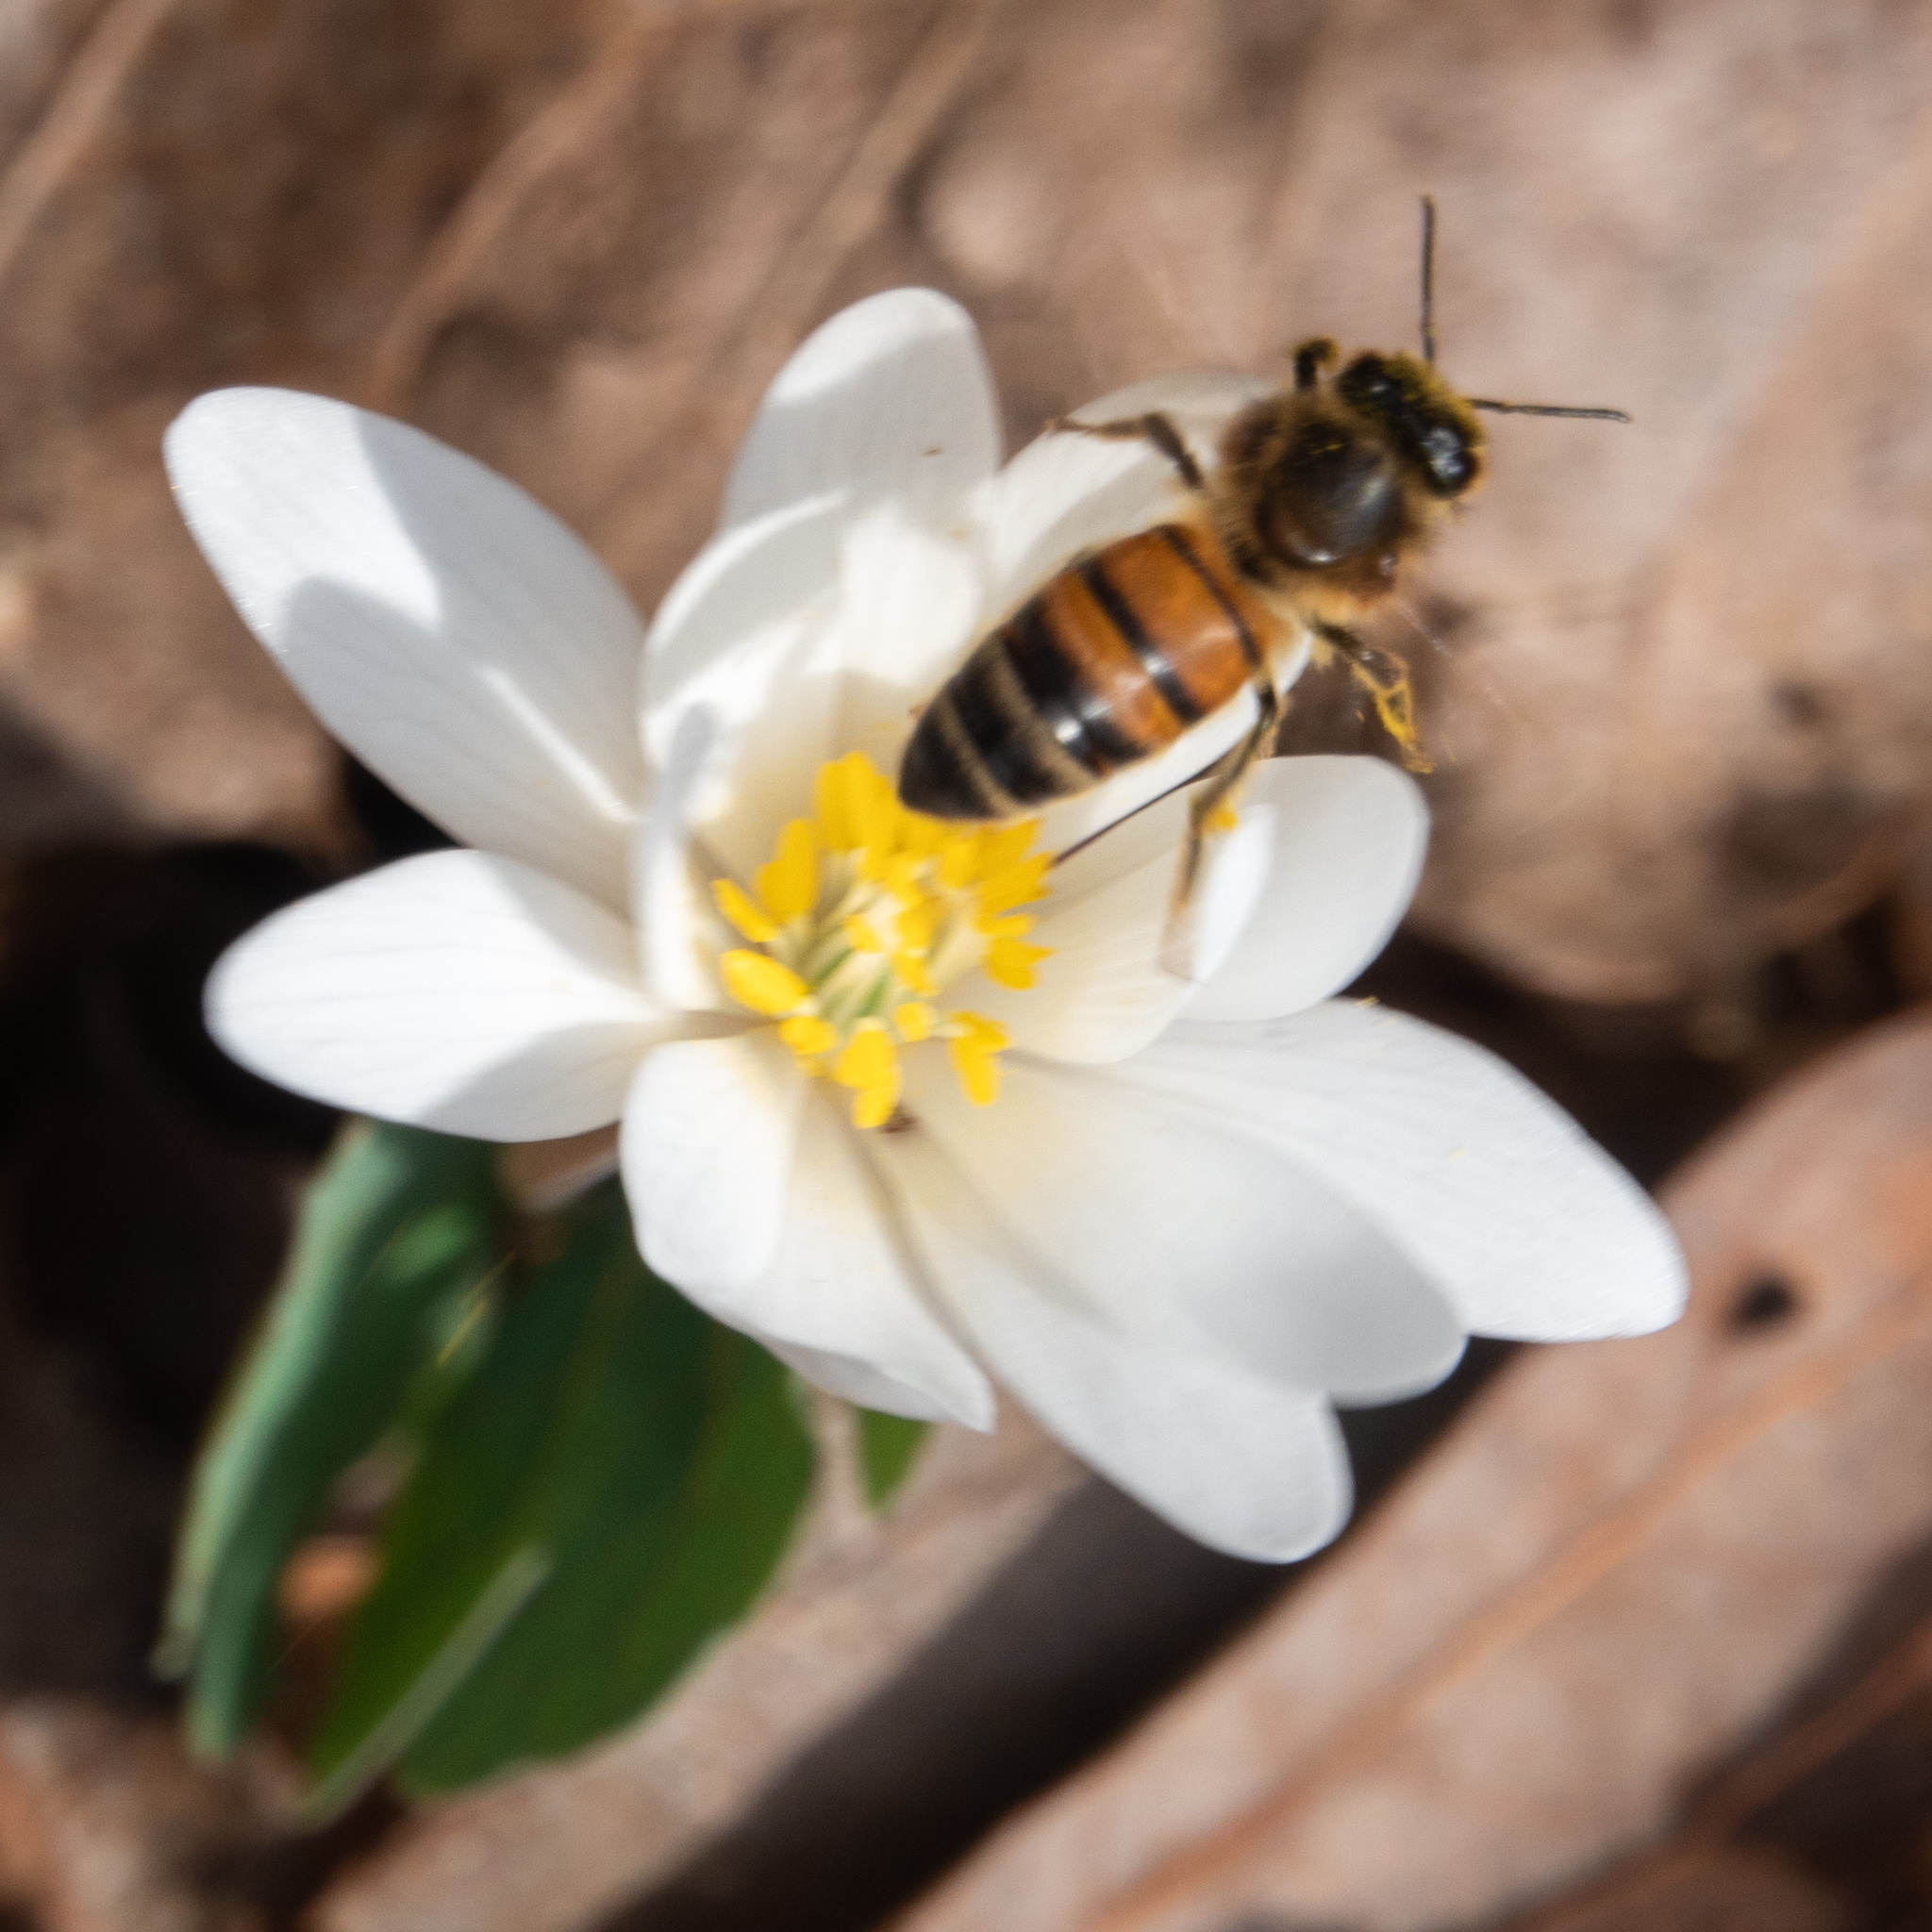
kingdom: Animalia
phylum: Arthropoda
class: Insecta
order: Hymenoptera
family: Apidae
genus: Apis
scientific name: Apis mellifera
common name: Honey bee
